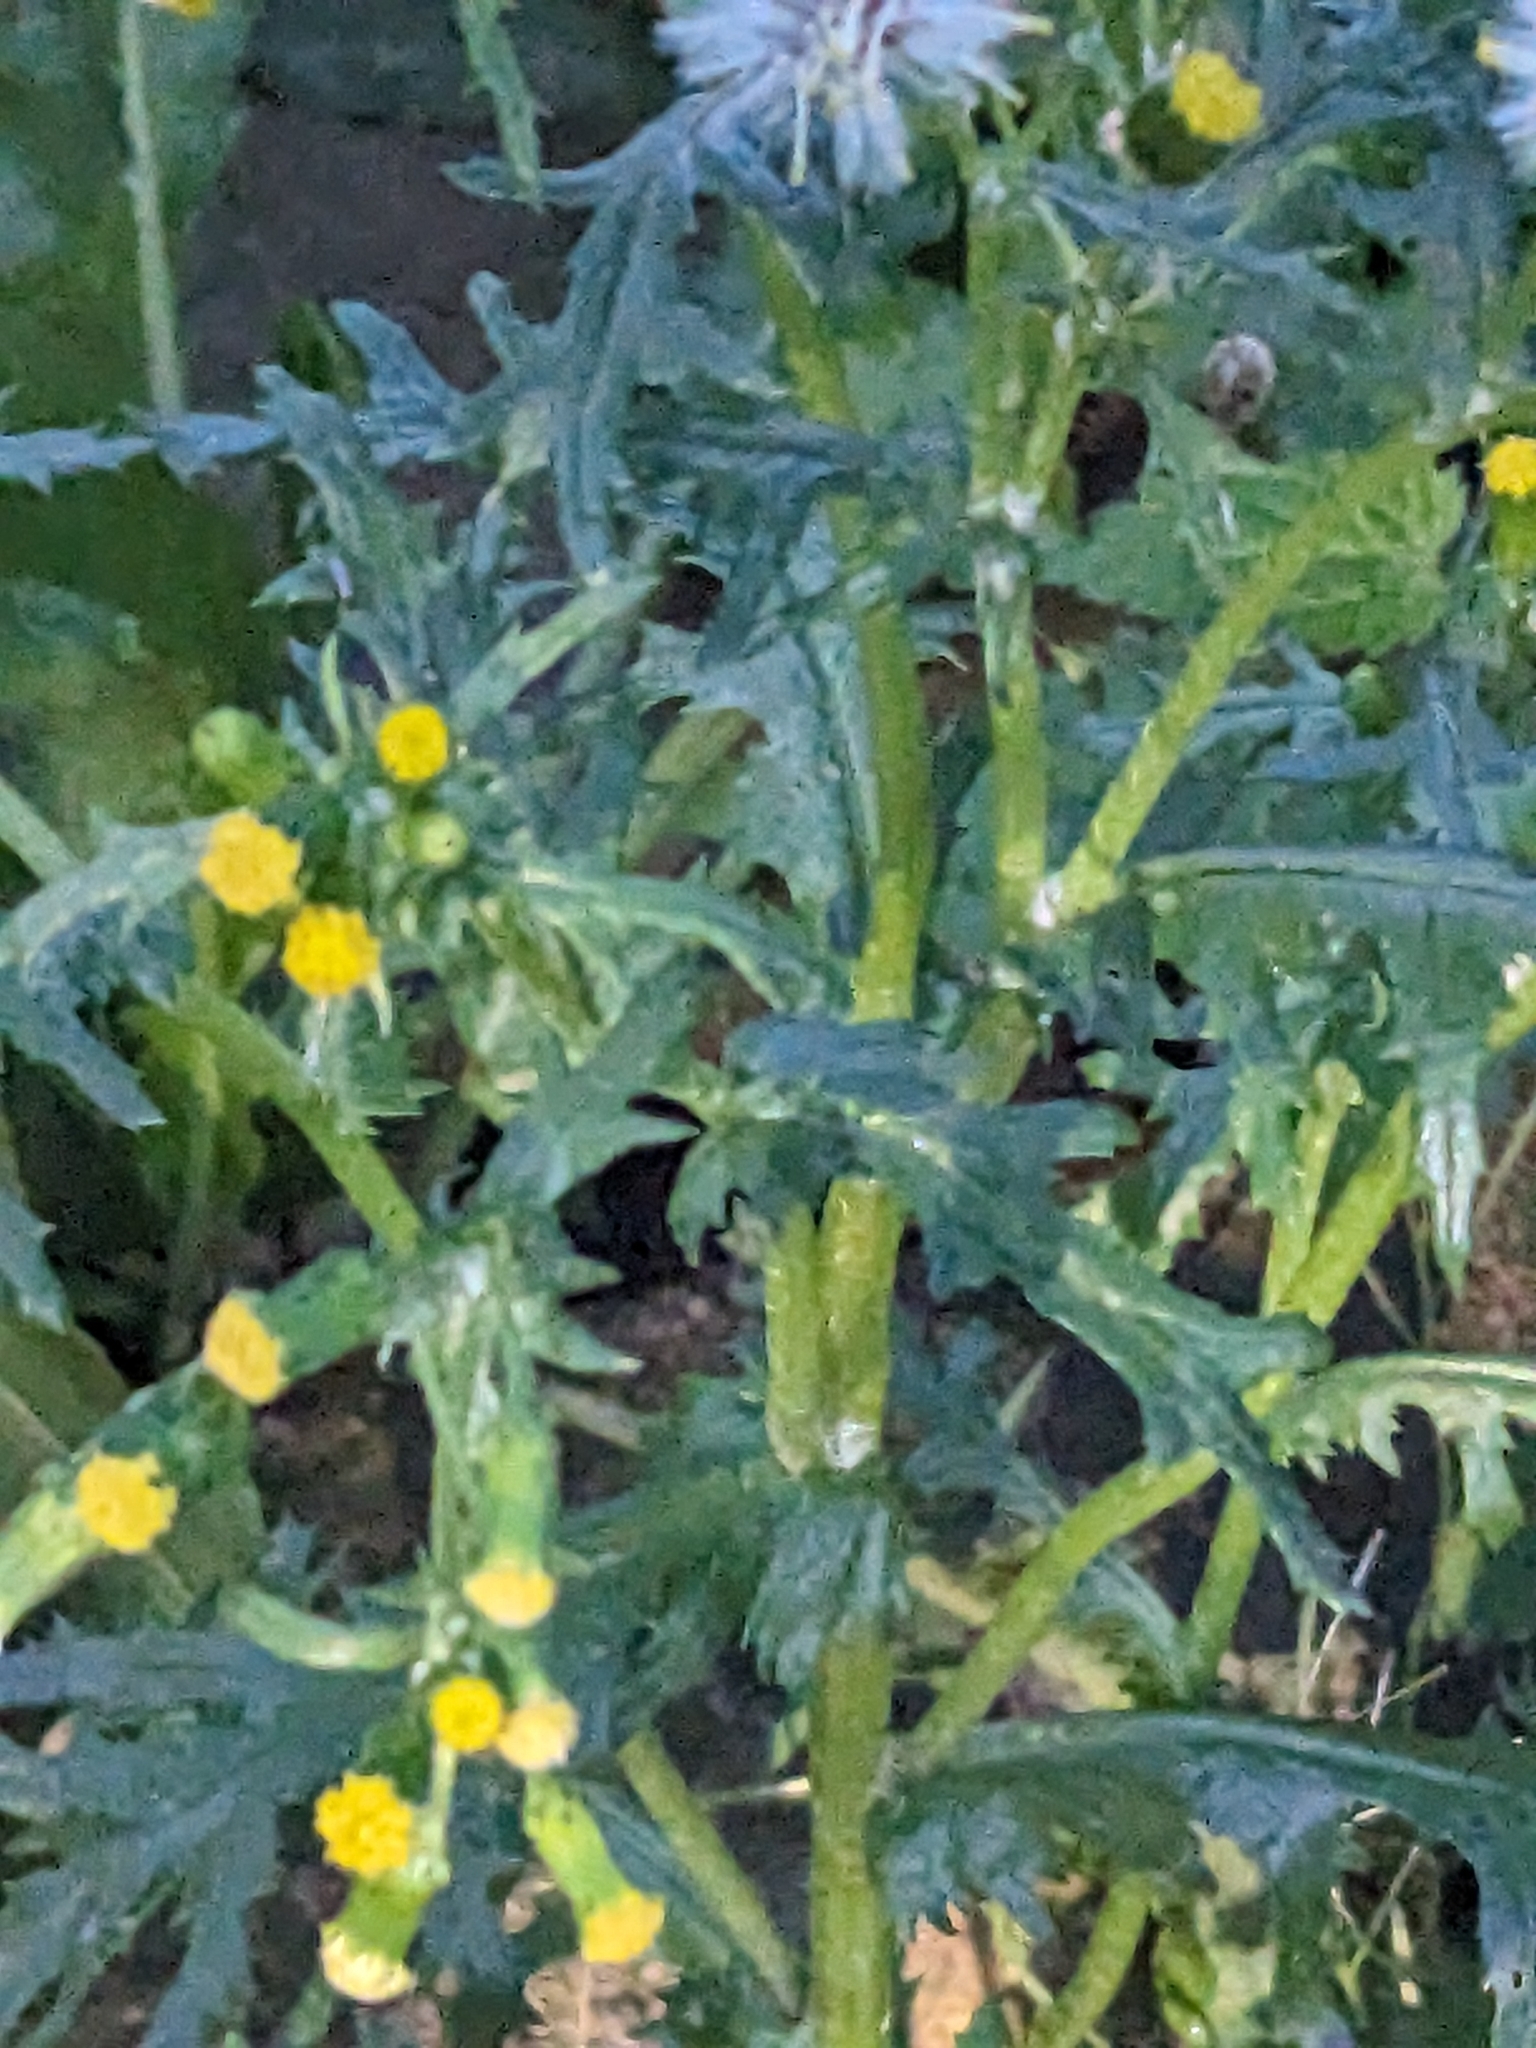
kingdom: Plantae
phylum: Tracheophyta
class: Magnoliopsida
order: Asterales
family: Asteraceae
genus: Senecio
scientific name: Senecio vulgaris
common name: Old-man-in-the-spring
